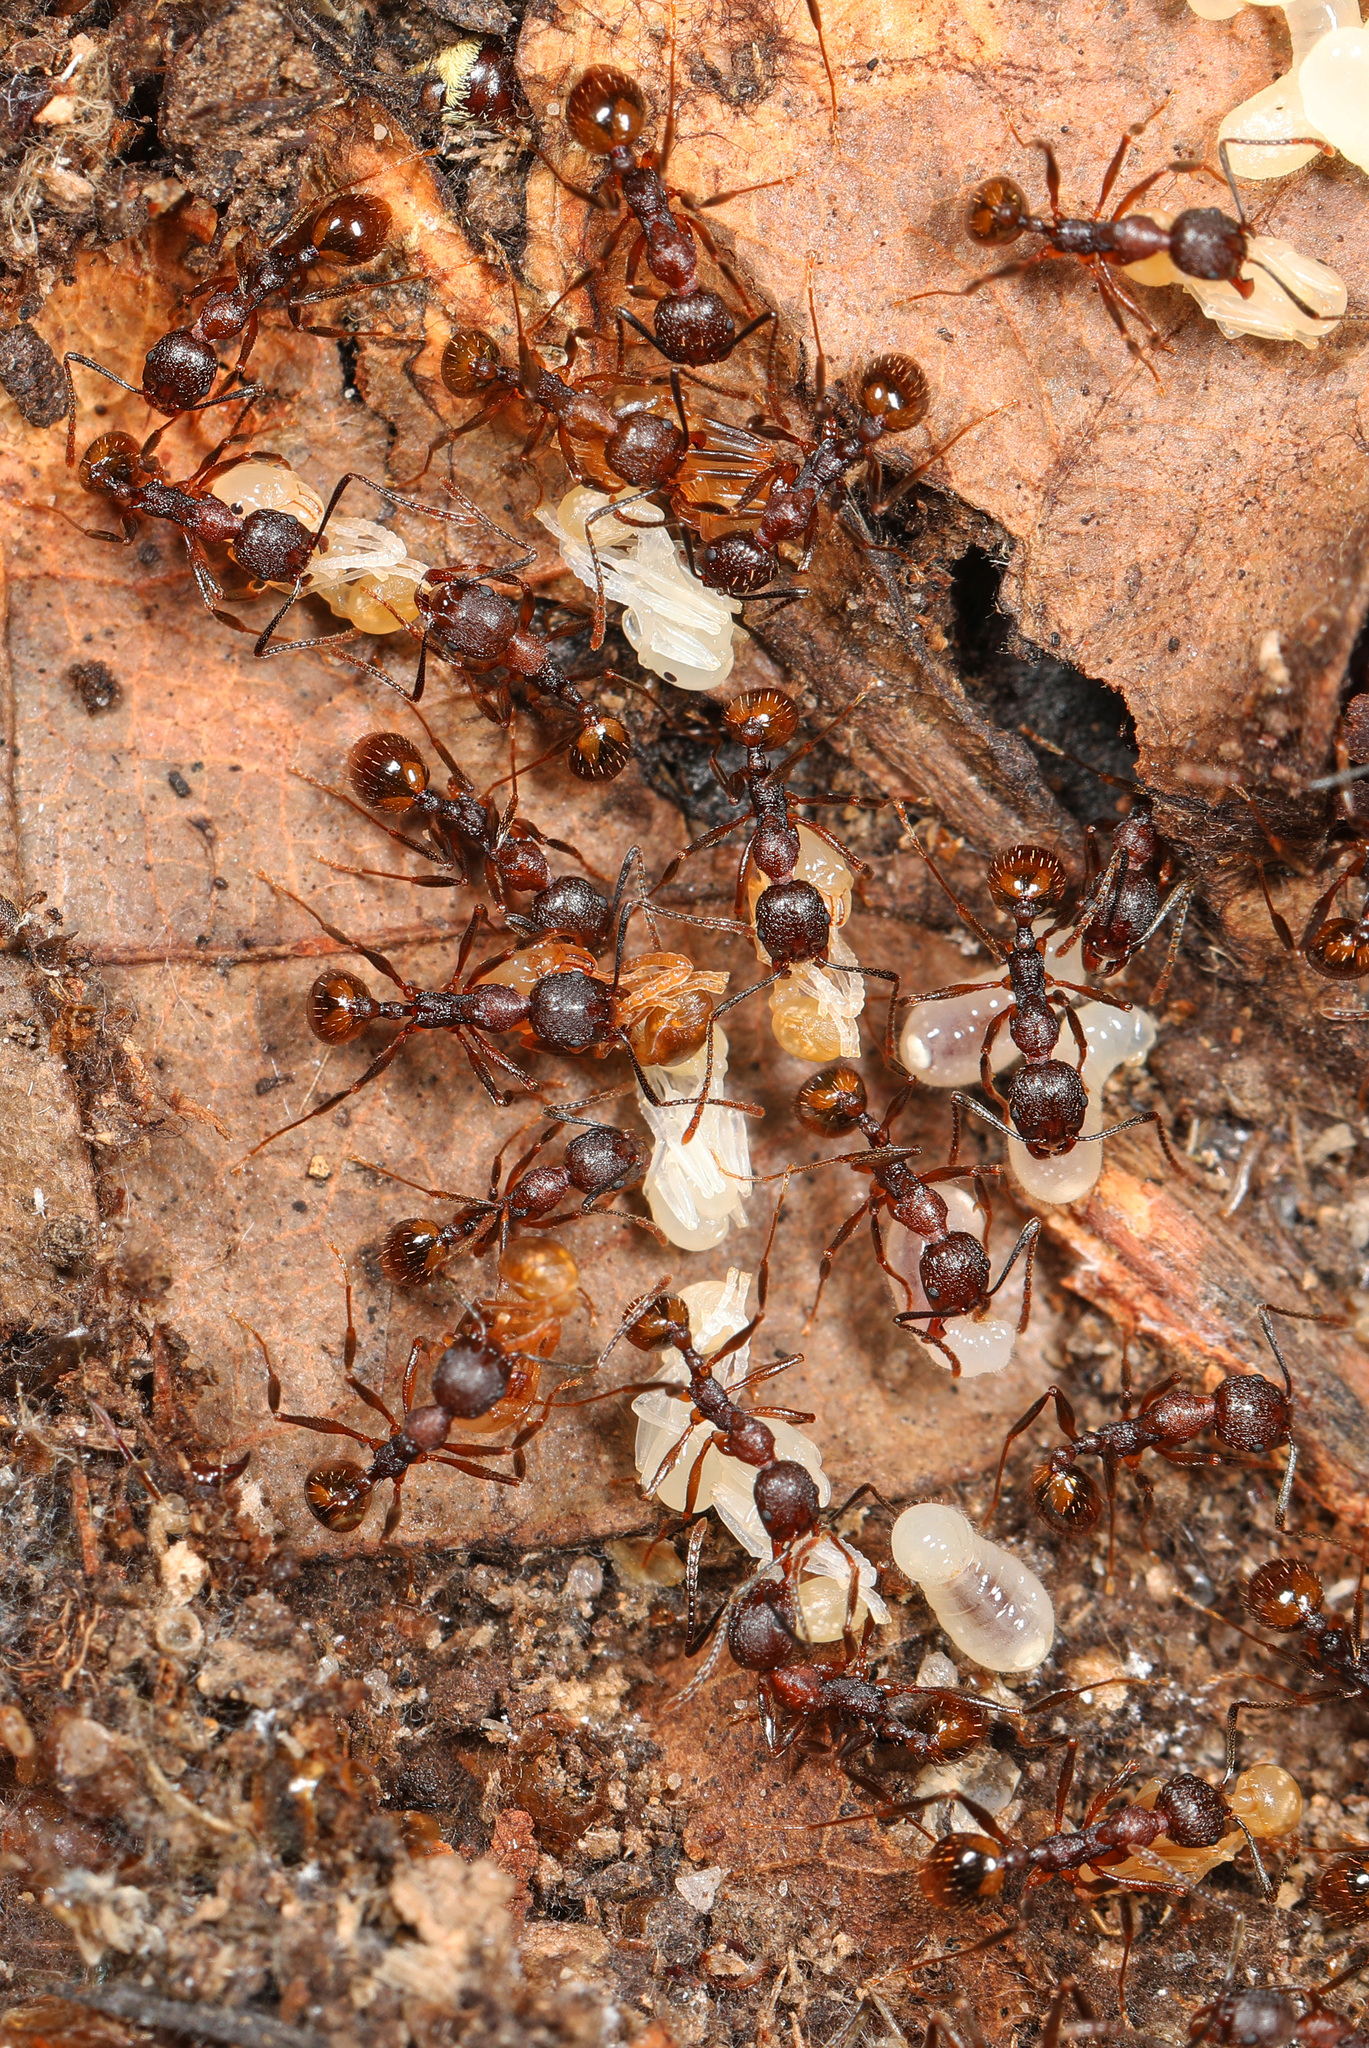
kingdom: Animalia
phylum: Arthropoda
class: Insecta
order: Hymenoptera
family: Formicidae
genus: Aphaenogaster
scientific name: Aphaenogaster fulva
